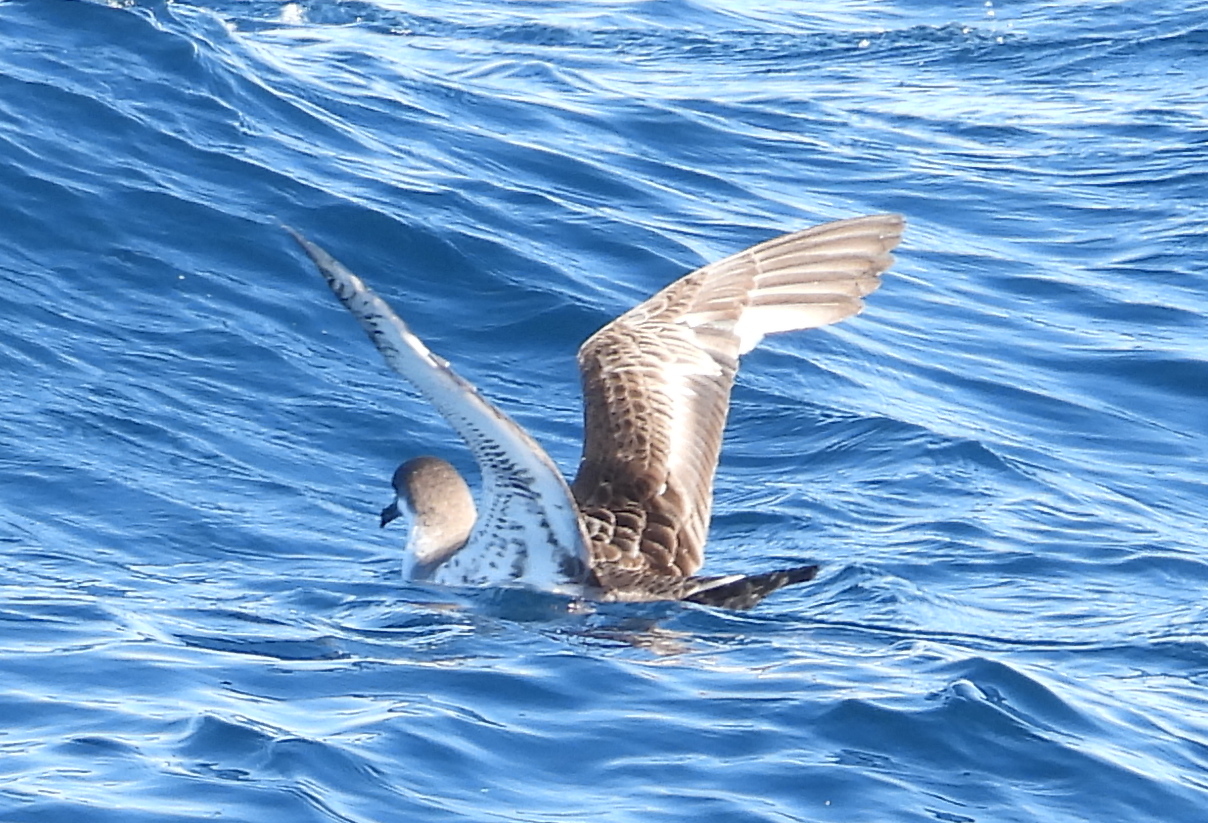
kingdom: Animalia
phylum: Chordata
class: Aves
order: Procellariiformes
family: Procellariidae
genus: Puffinus
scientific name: Puffinus gravis
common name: Great shearwater
